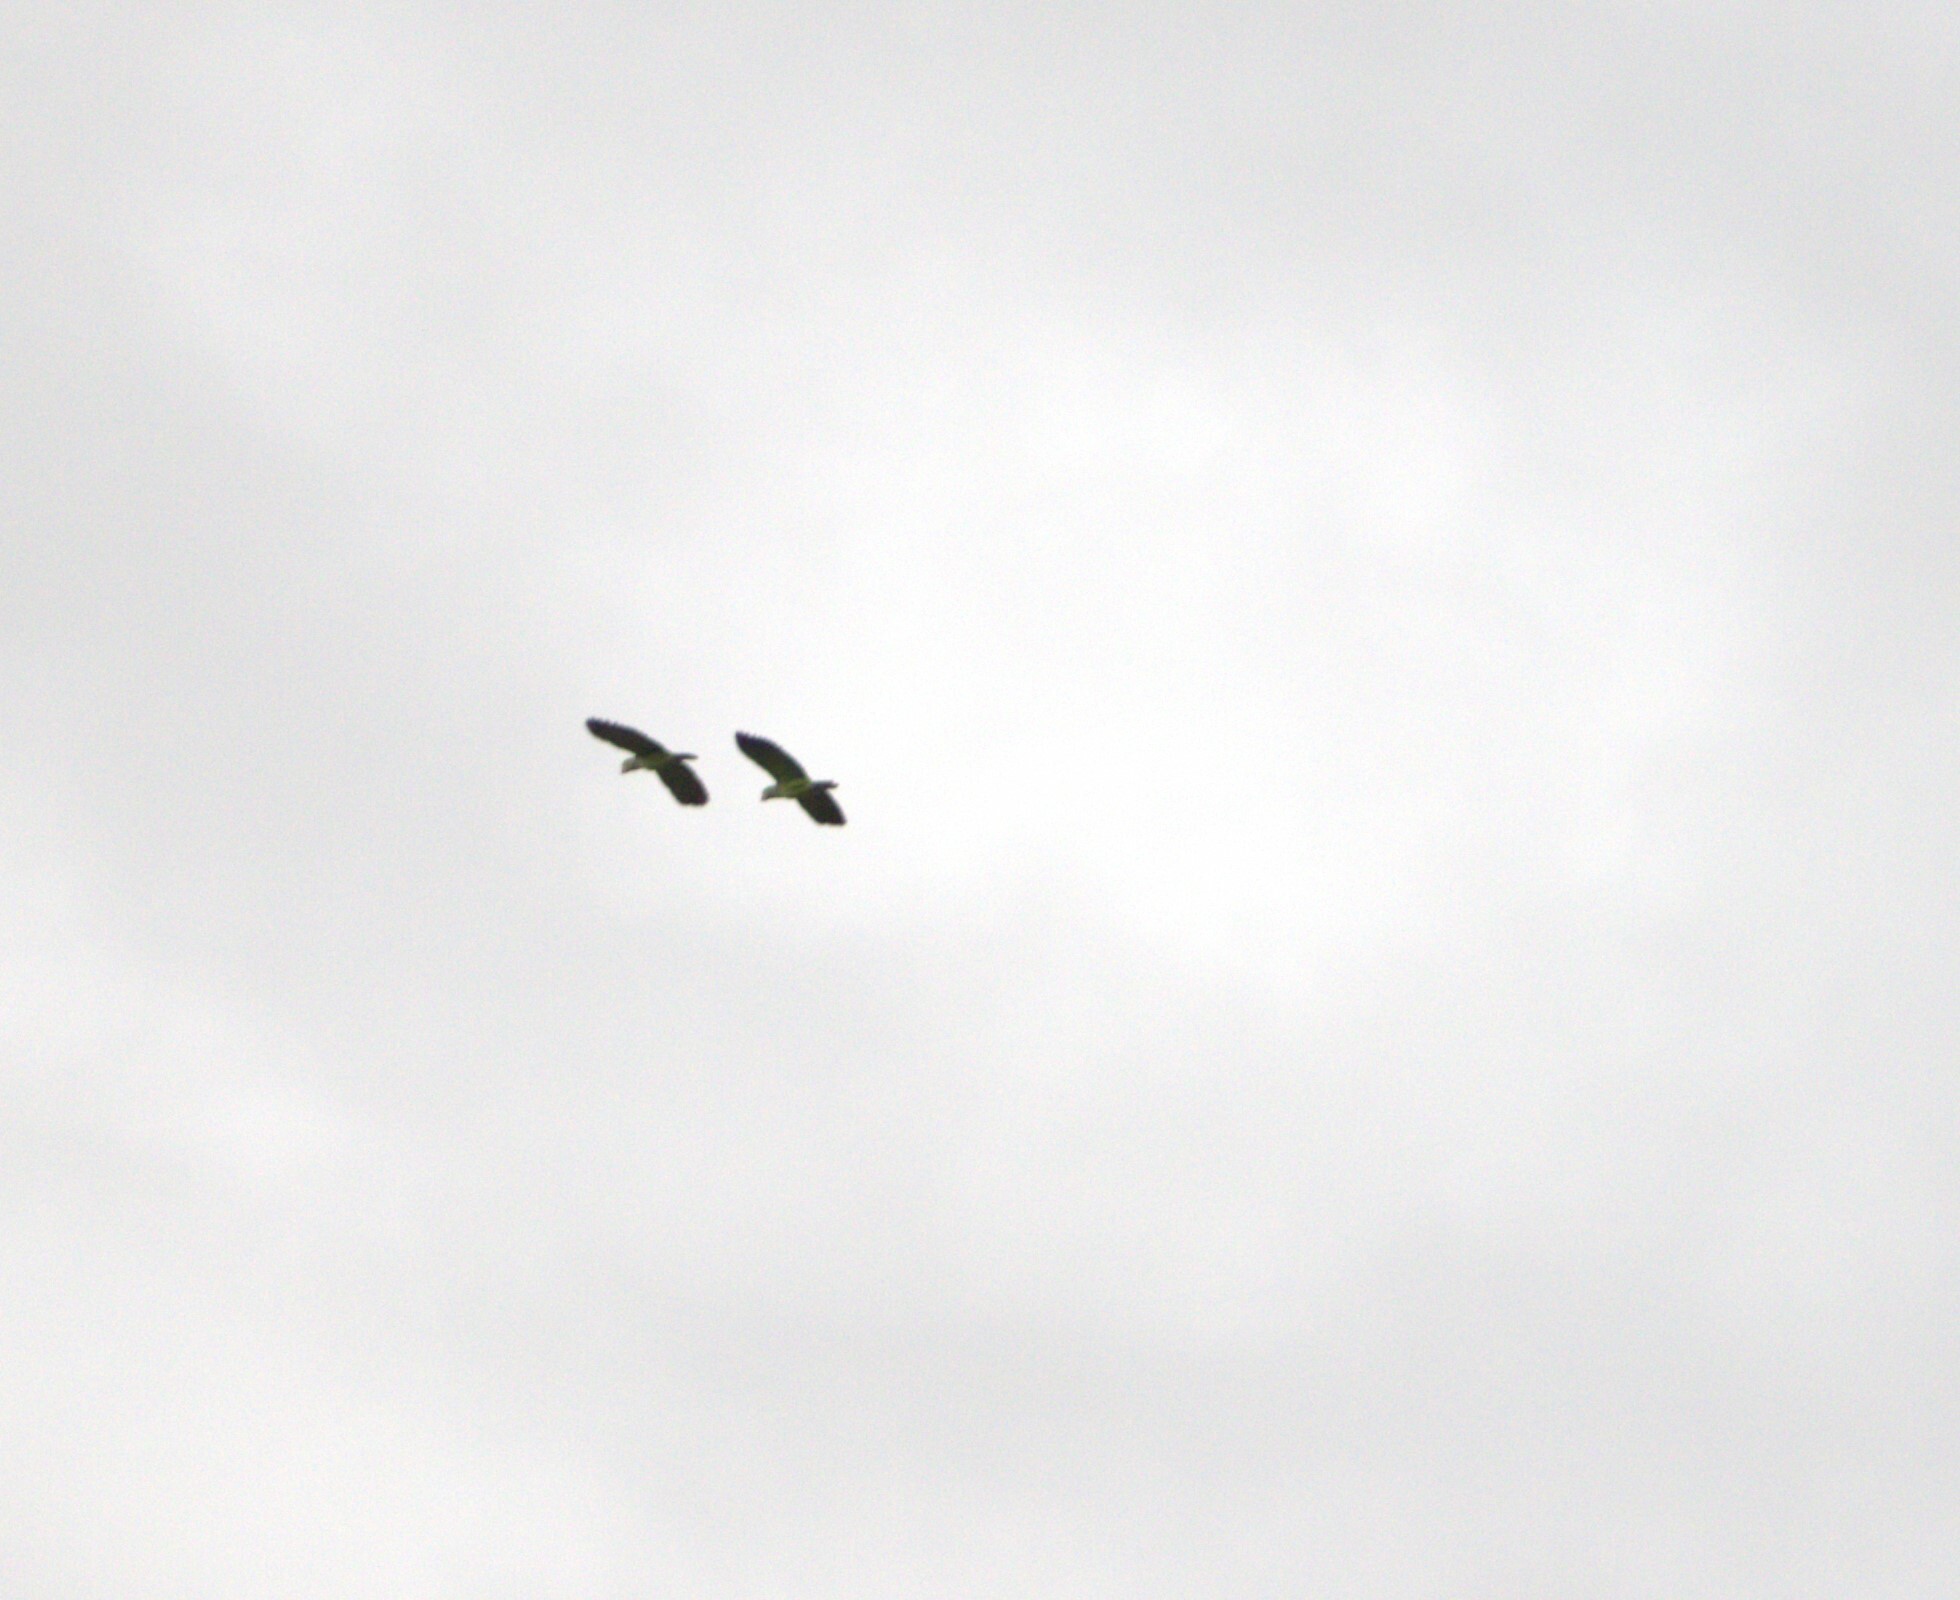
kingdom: Animalia
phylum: Chordata
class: Aves
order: Psittaciformes
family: Psittacidae
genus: Amazona
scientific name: Amazona
